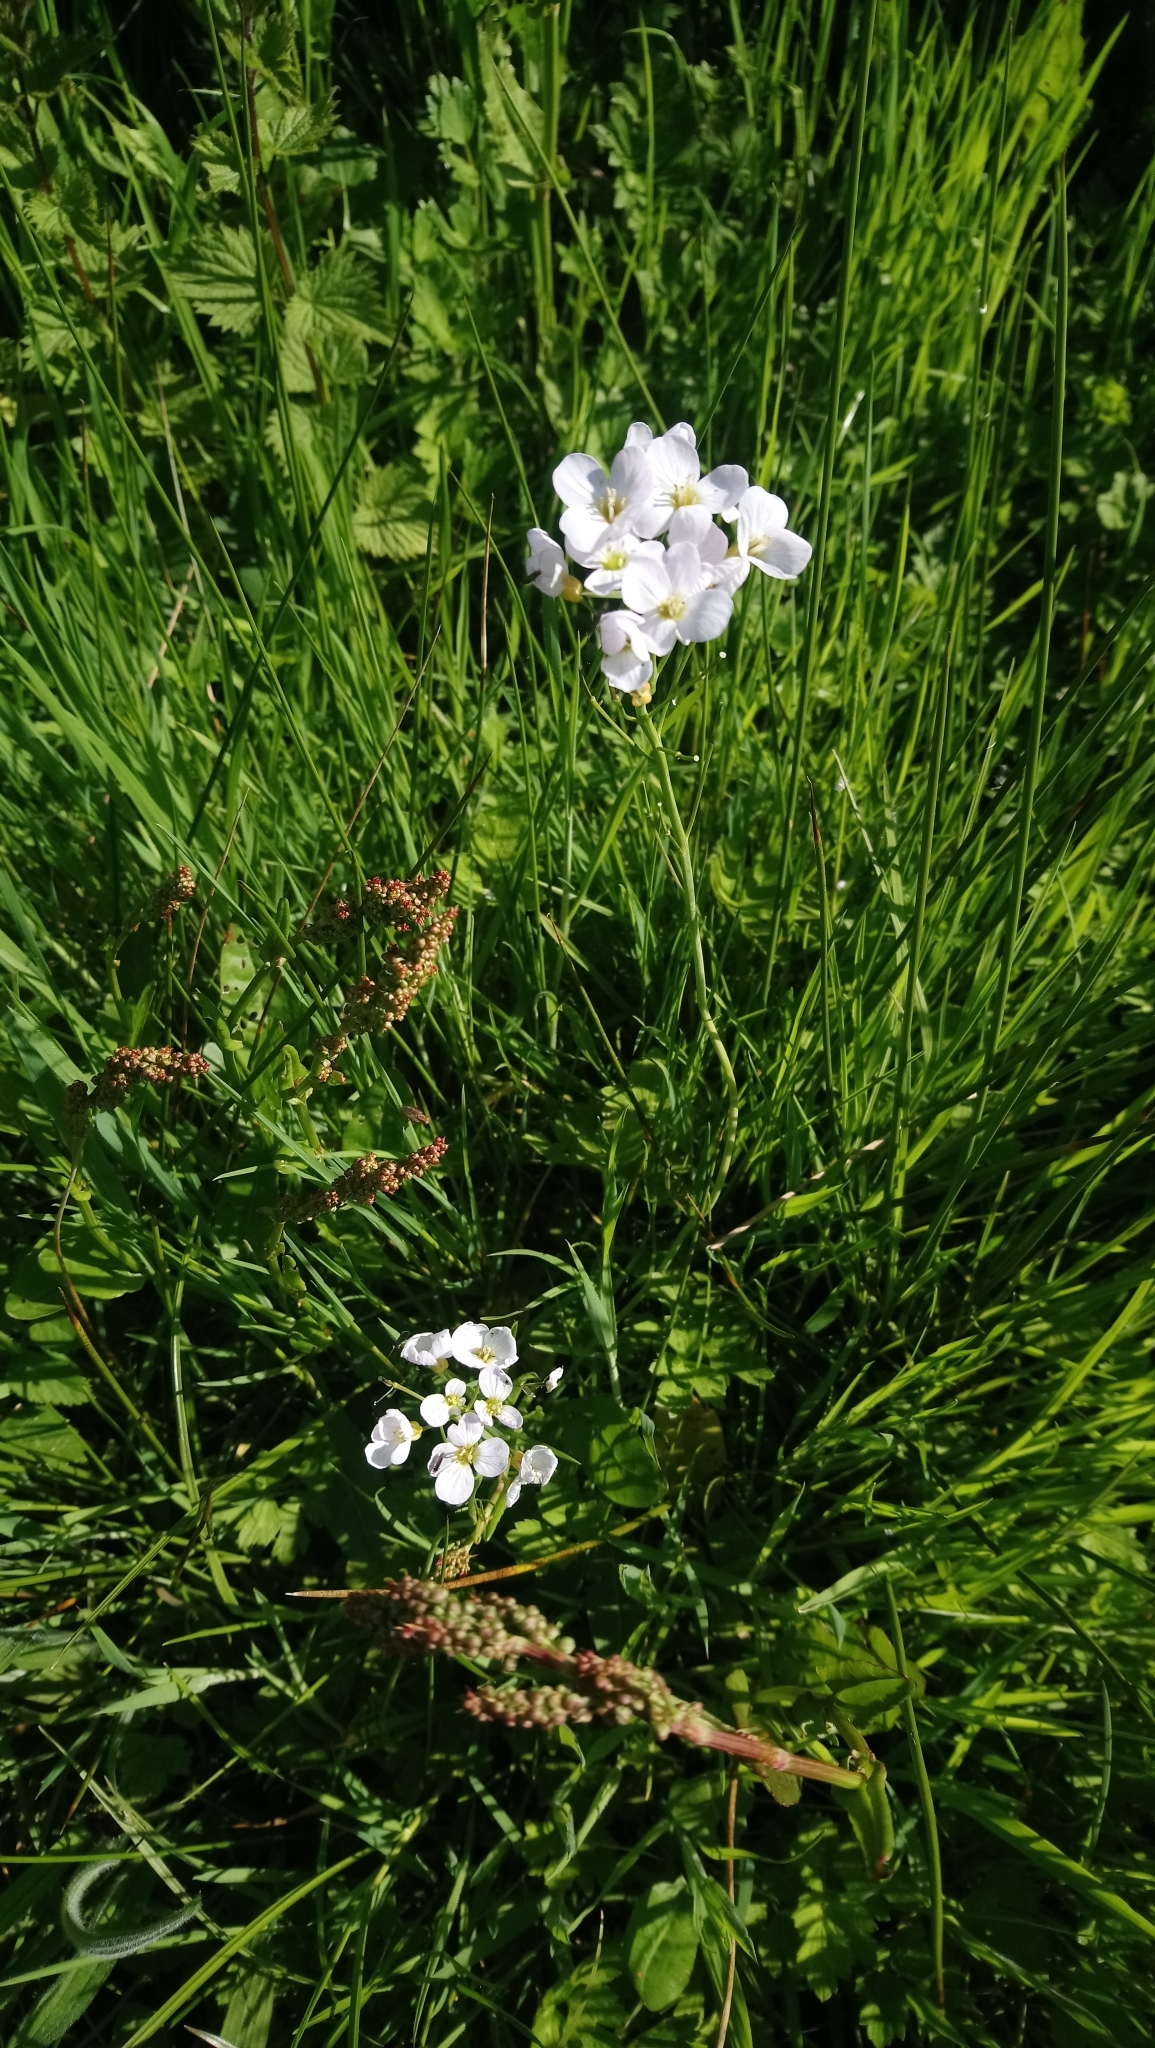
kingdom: Plantae
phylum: Tracheophyta
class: Magnoliopsida
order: Brassicales
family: Brassicaceae
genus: Cardamine
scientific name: Cardamine pratensis
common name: Cuckoo flower
